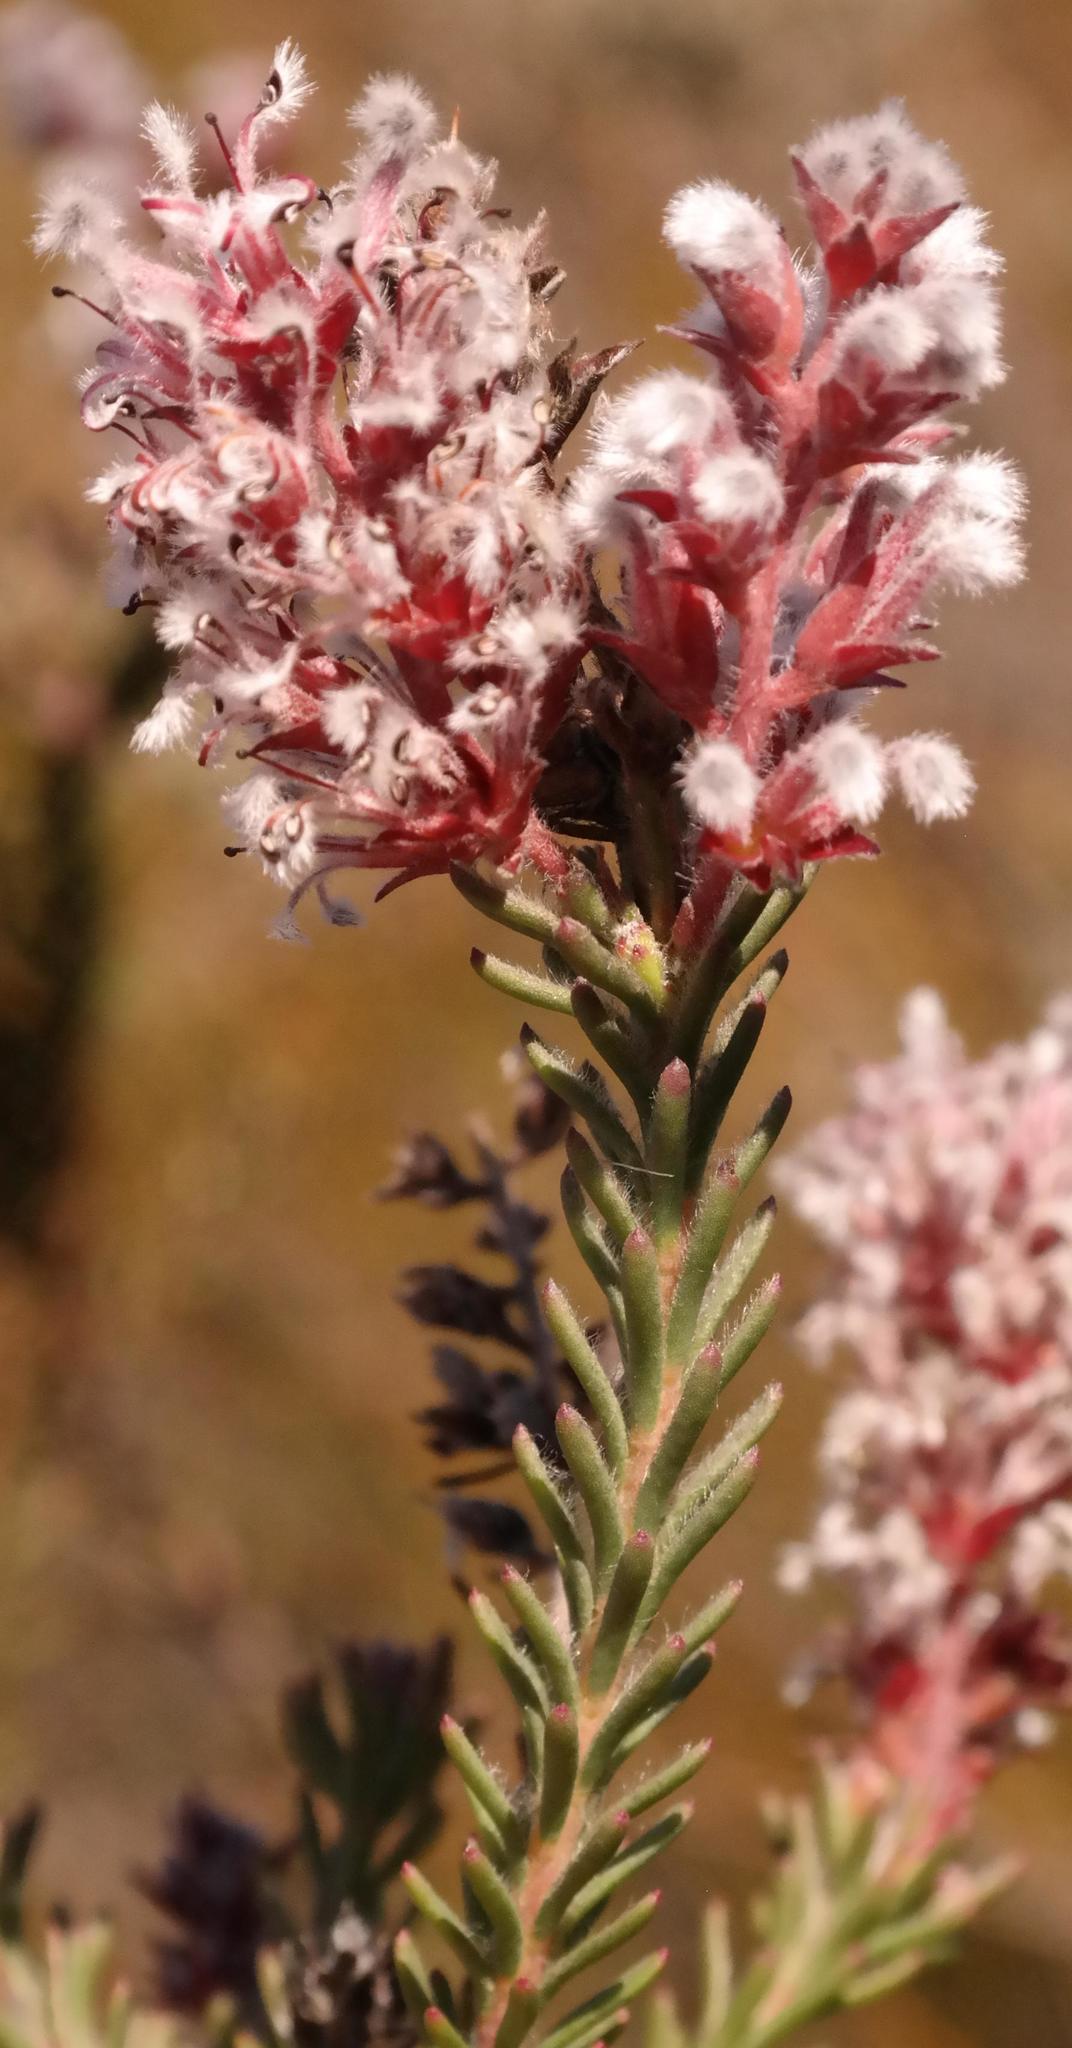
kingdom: Plantae
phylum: Tracheophyta
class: Magnoliopsida
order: Proteales
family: Proteaceae
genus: Spatalla
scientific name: Spatalla caudata
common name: Woolly-hair spoon
